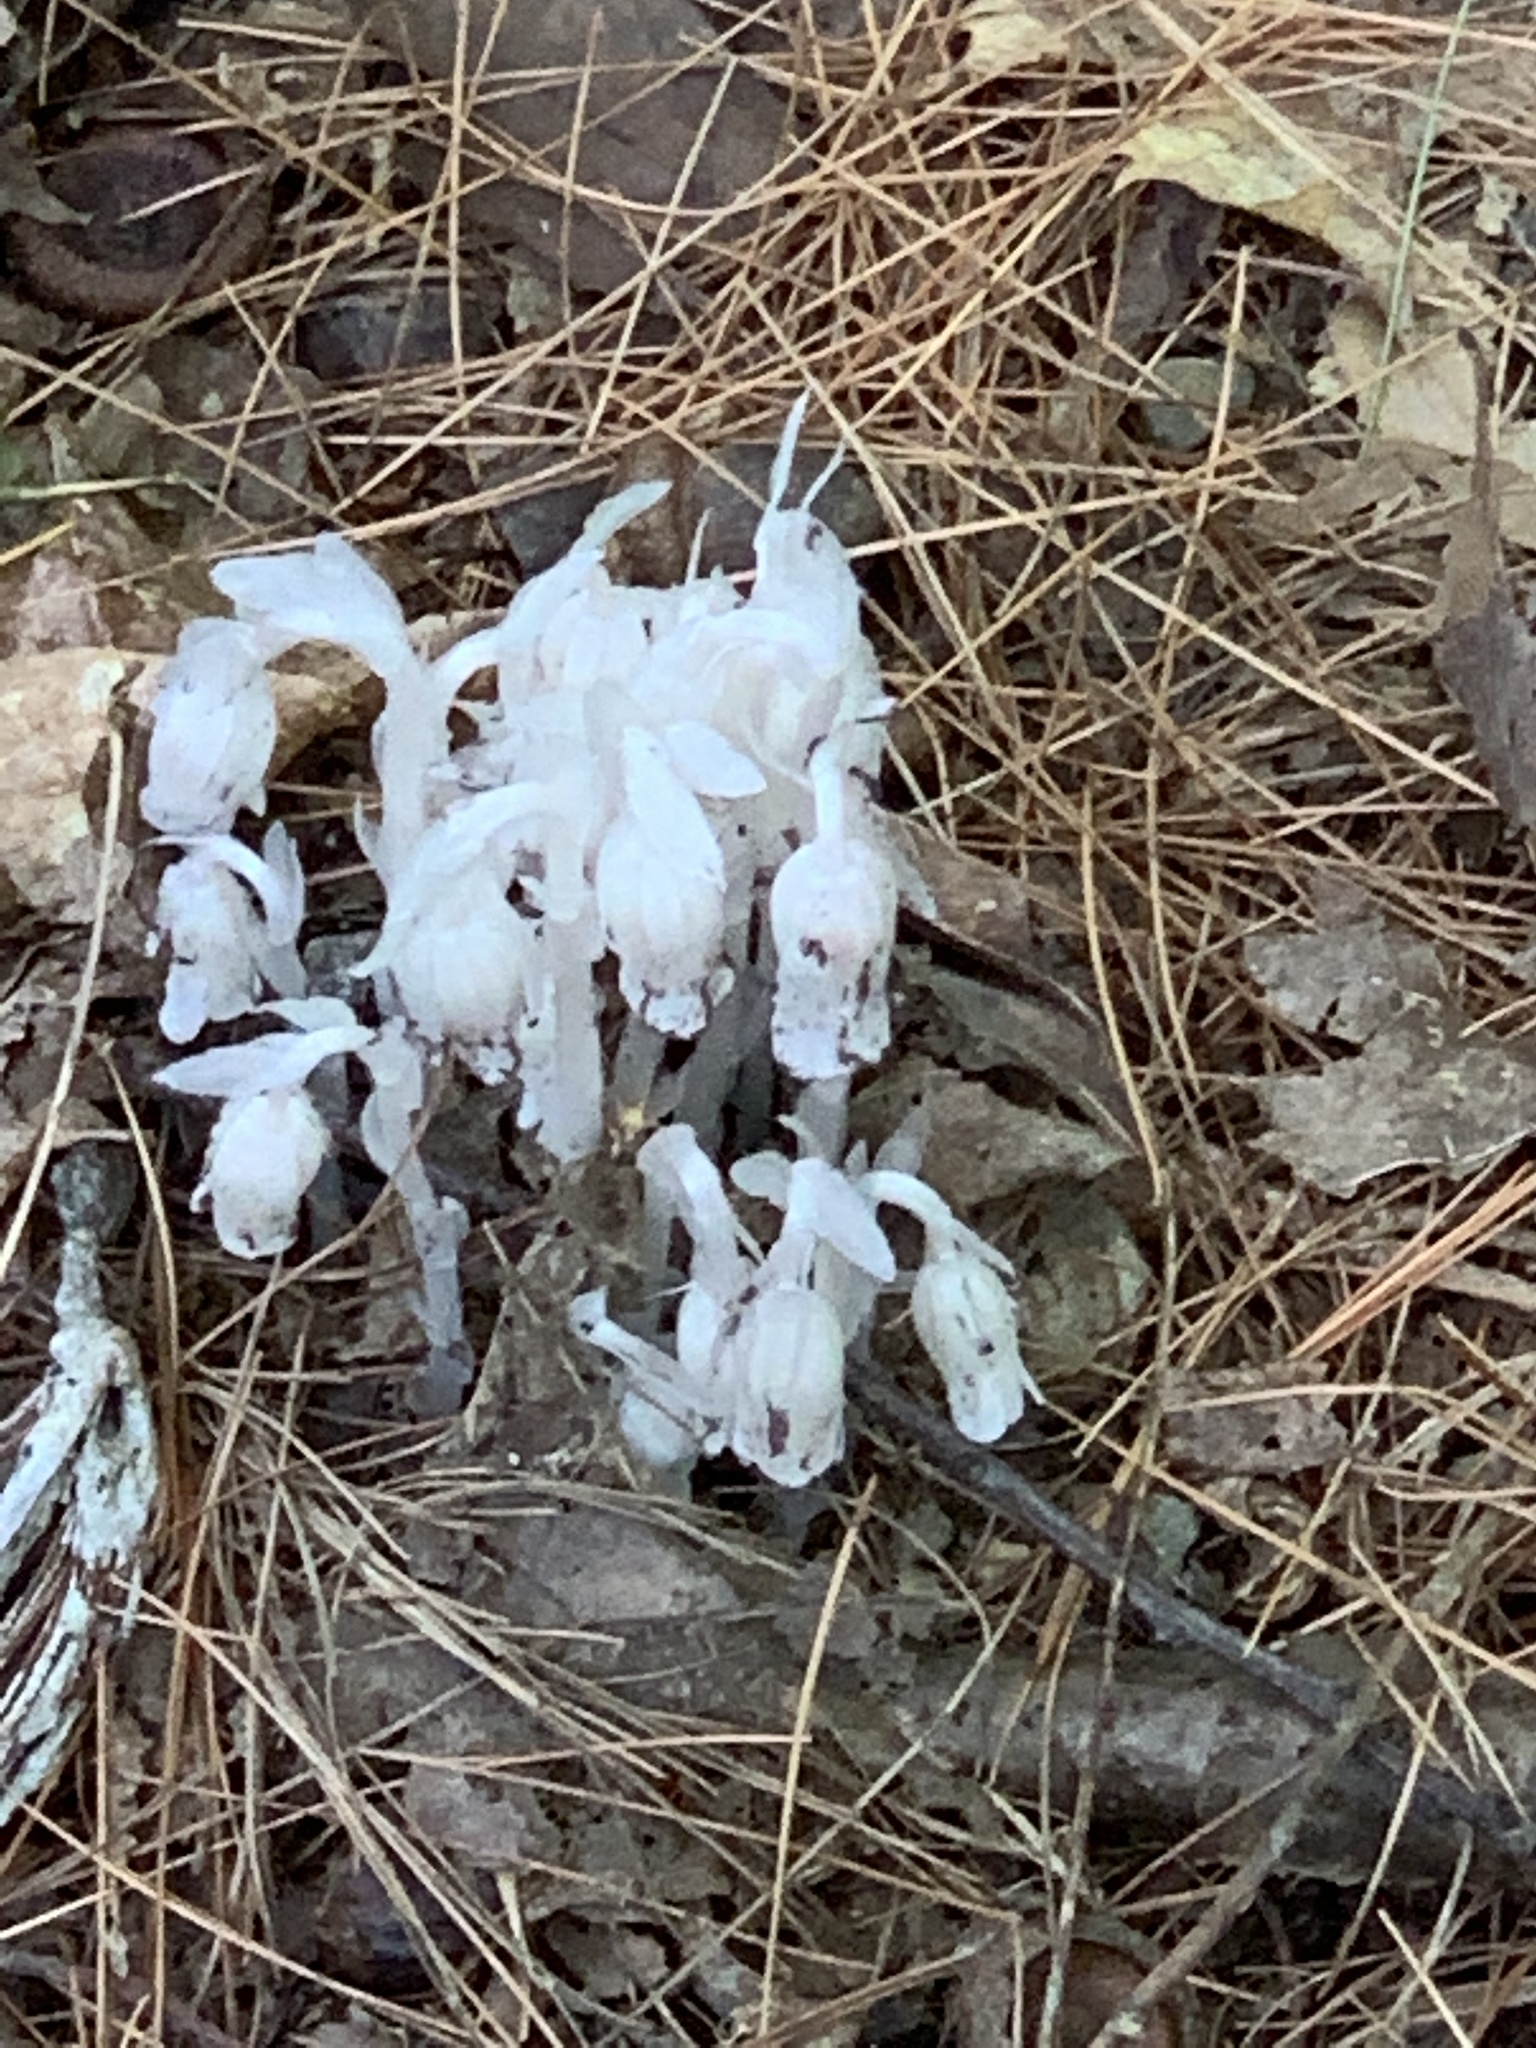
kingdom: Plantae
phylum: Tracheophyta
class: Magnoliopsida
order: Ericales
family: Ericaceae
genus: Monotropa
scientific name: Monotropa uniflora
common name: Convulsion root
